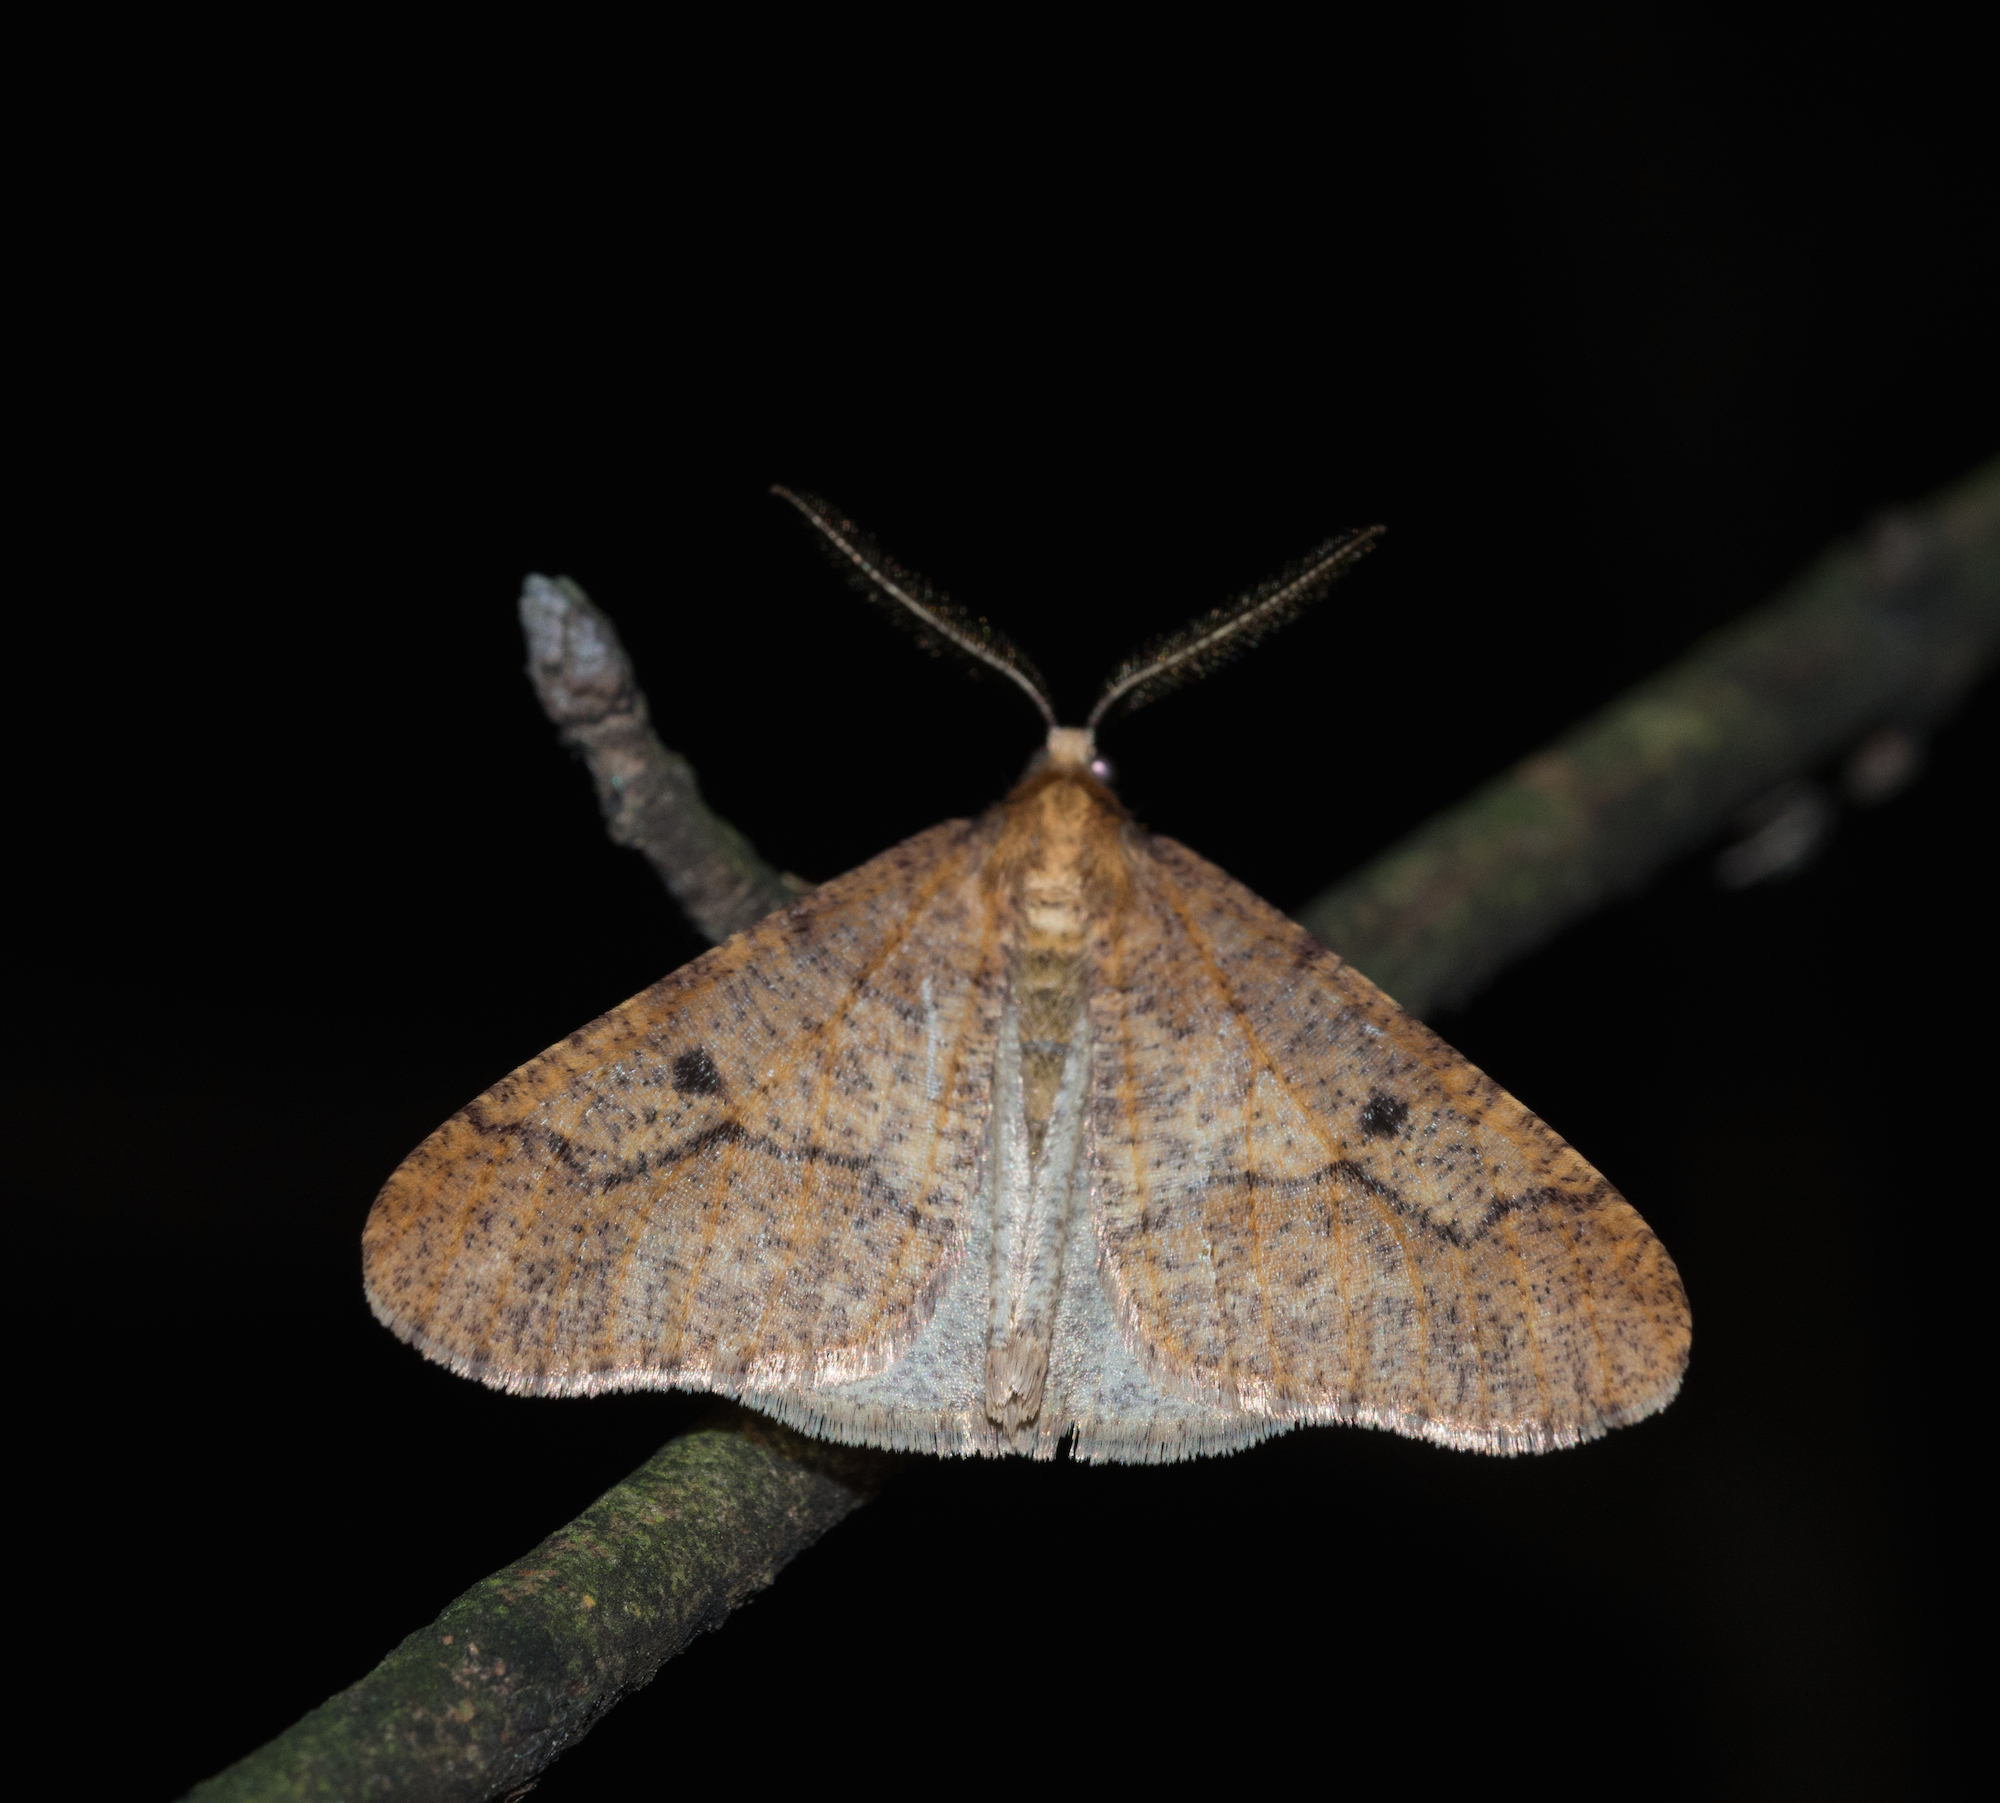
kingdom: Animalia
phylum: Arthropoda
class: Insecta
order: Lepidoptera
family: Geometridae
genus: Erannis
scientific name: Erannis defoliaria
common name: Mottled umber
